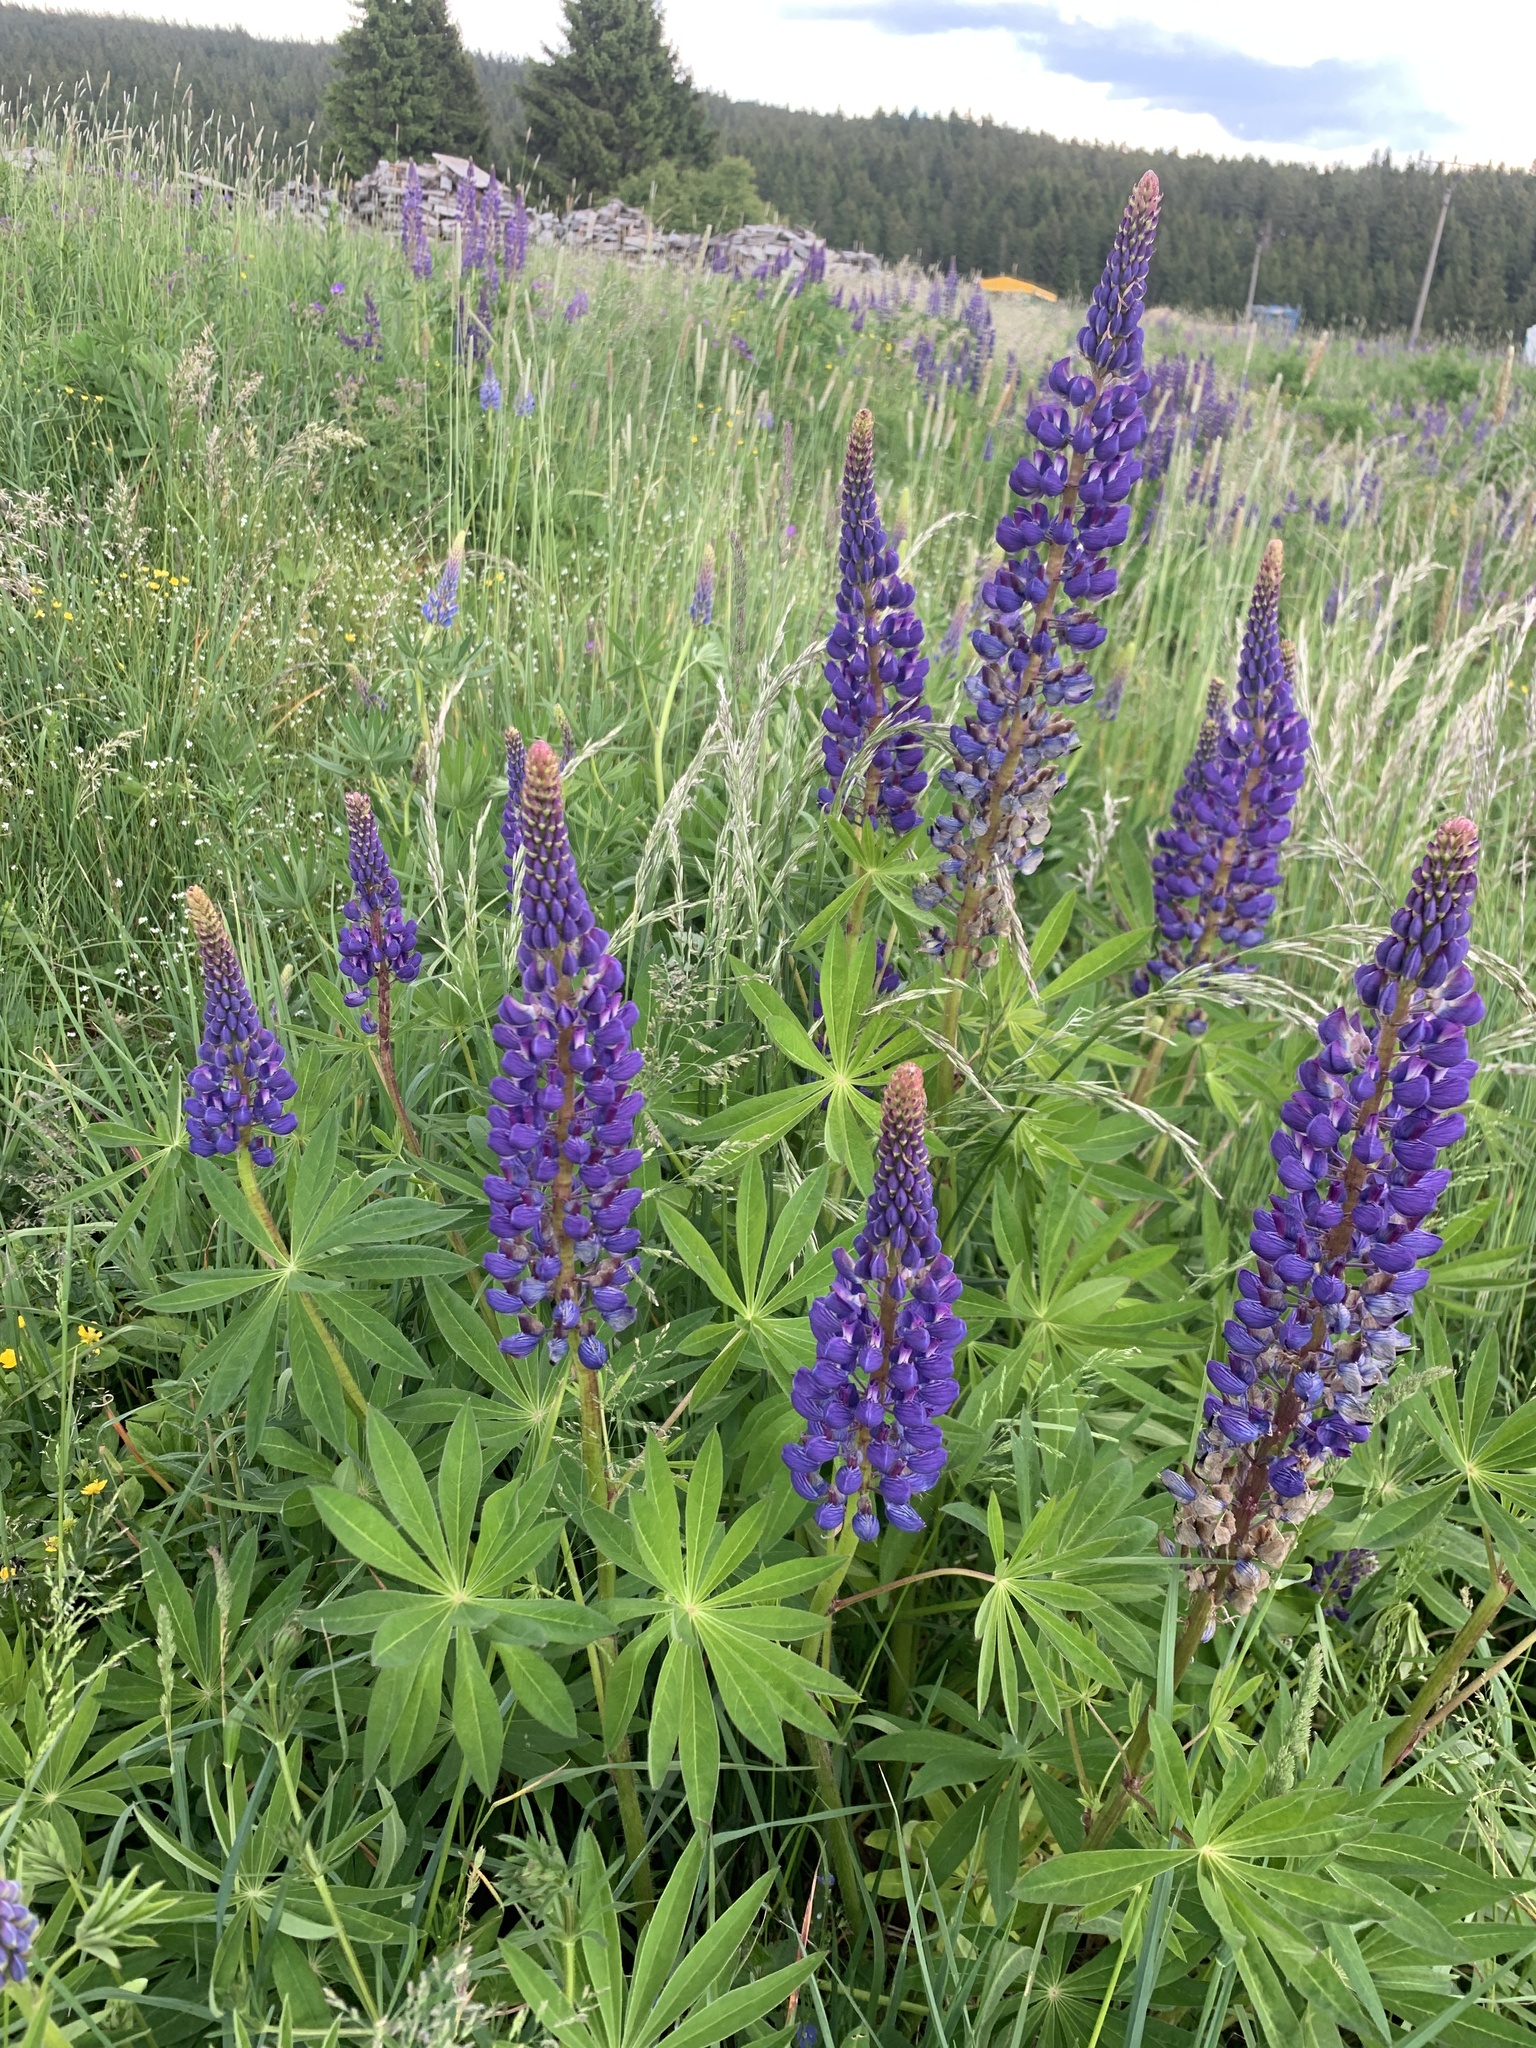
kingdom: Plantae
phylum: Tracheophyta
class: Magnoliopsida
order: Fabales
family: Fabaceae
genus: Lupinus
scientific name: Lupinus polyphyllus
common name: Garden lupin
